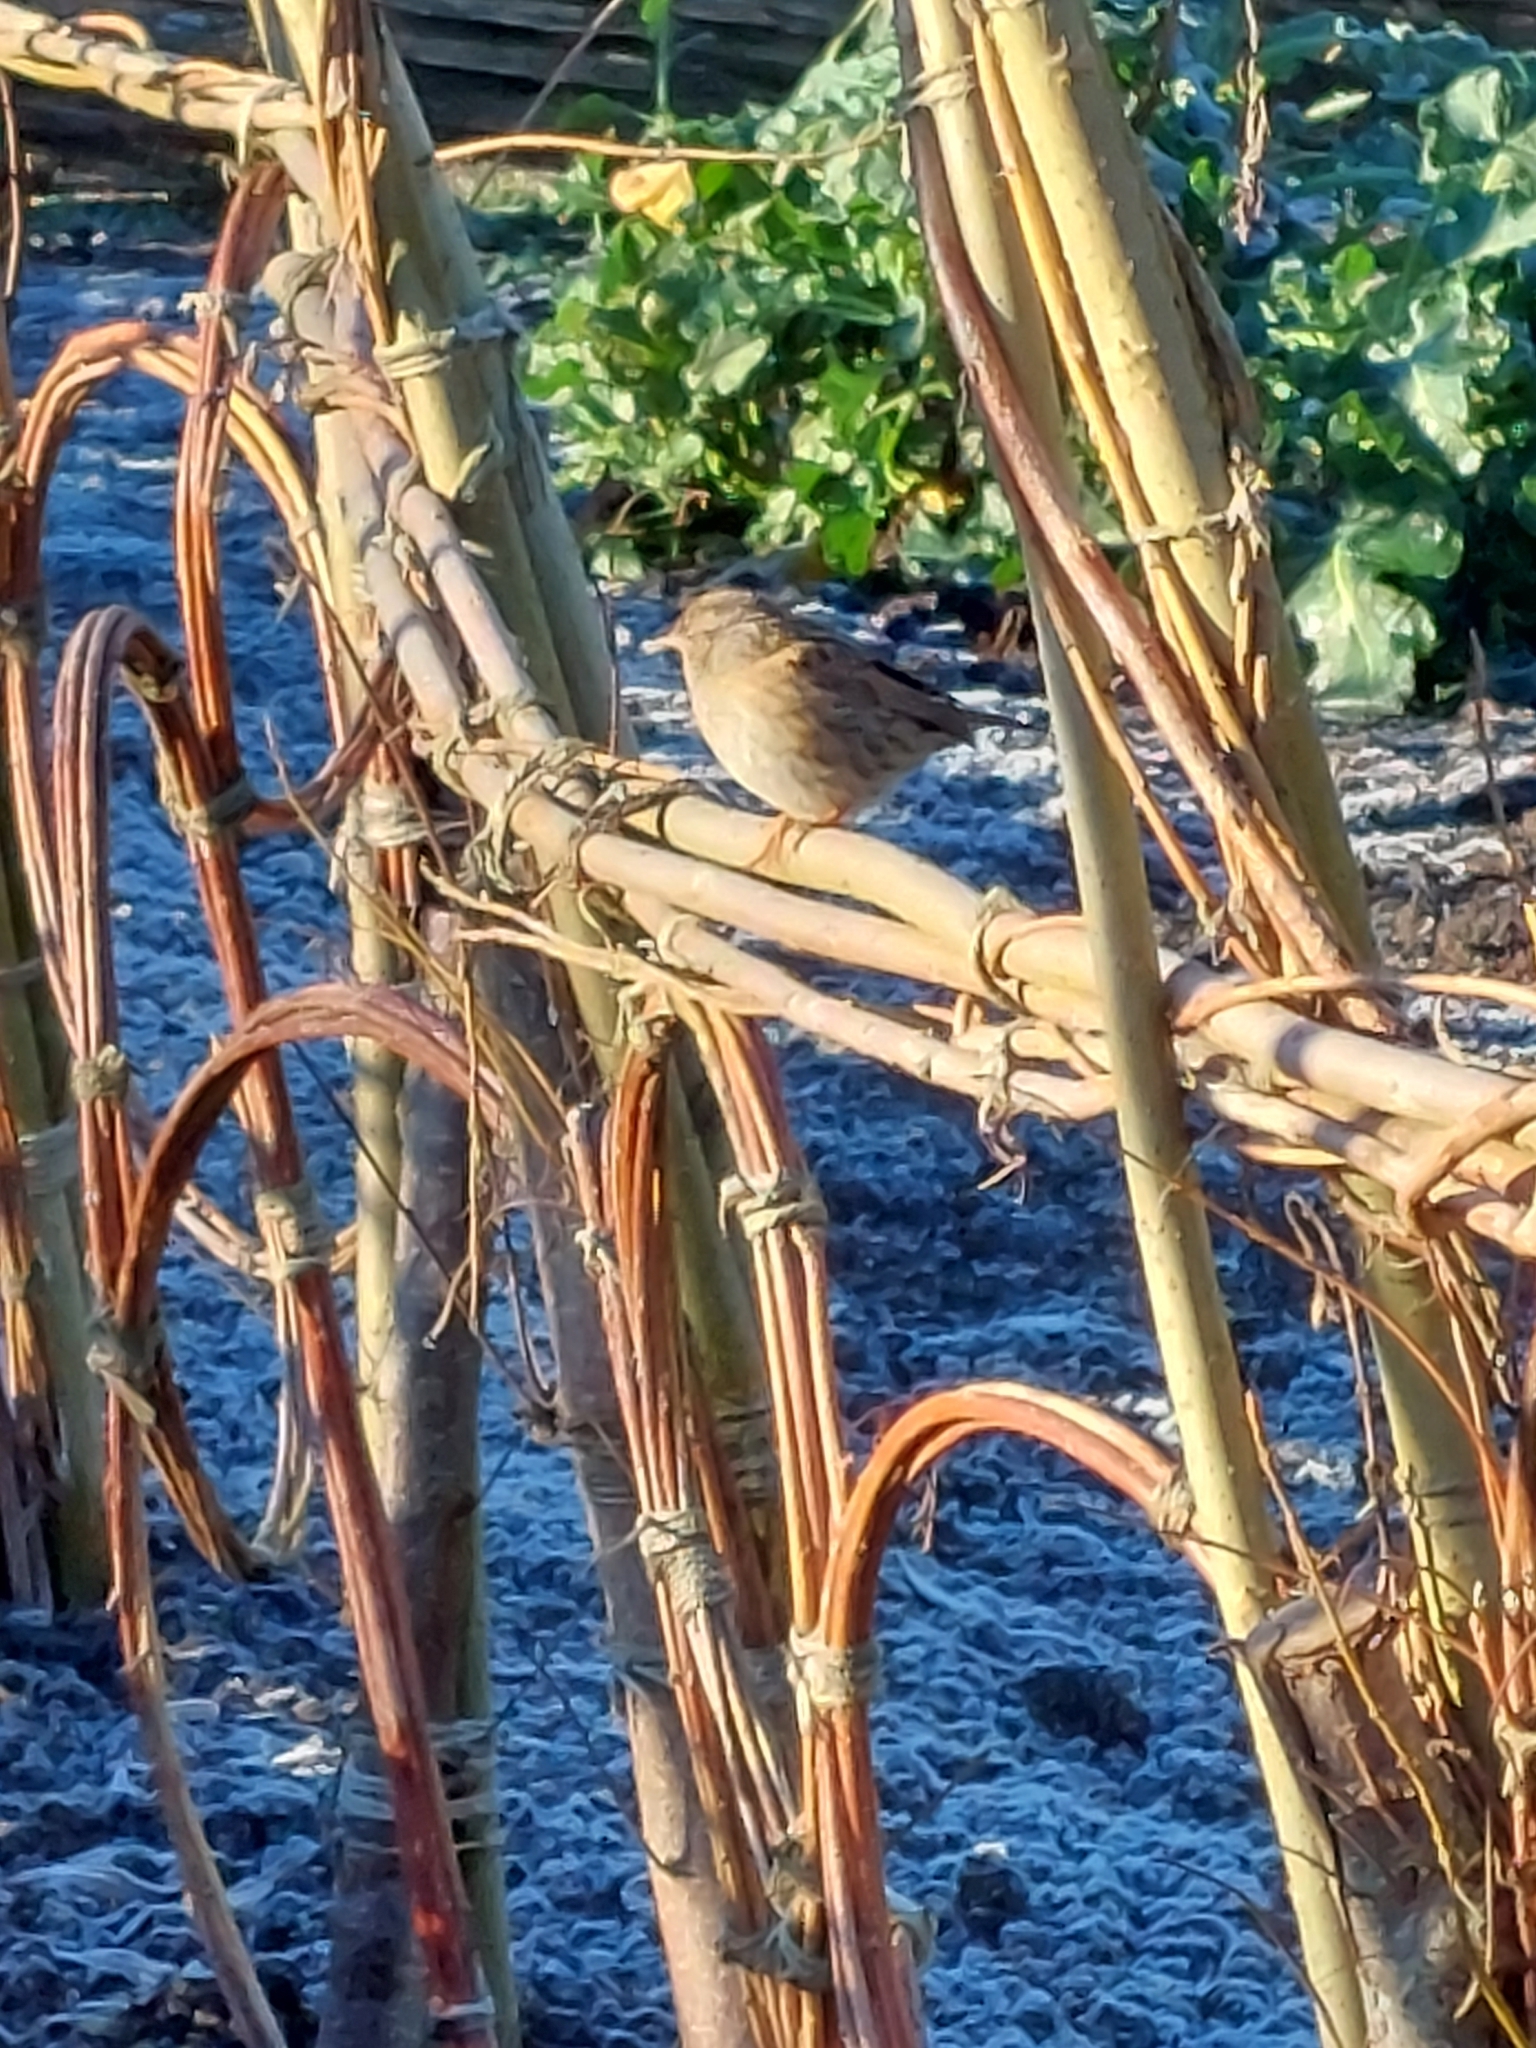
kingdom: Animalia
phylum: Chordata
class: Aves
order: Passeriformes
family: Prunellidae
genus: Prunella
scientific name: Prunella modularis
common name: Dunnock
